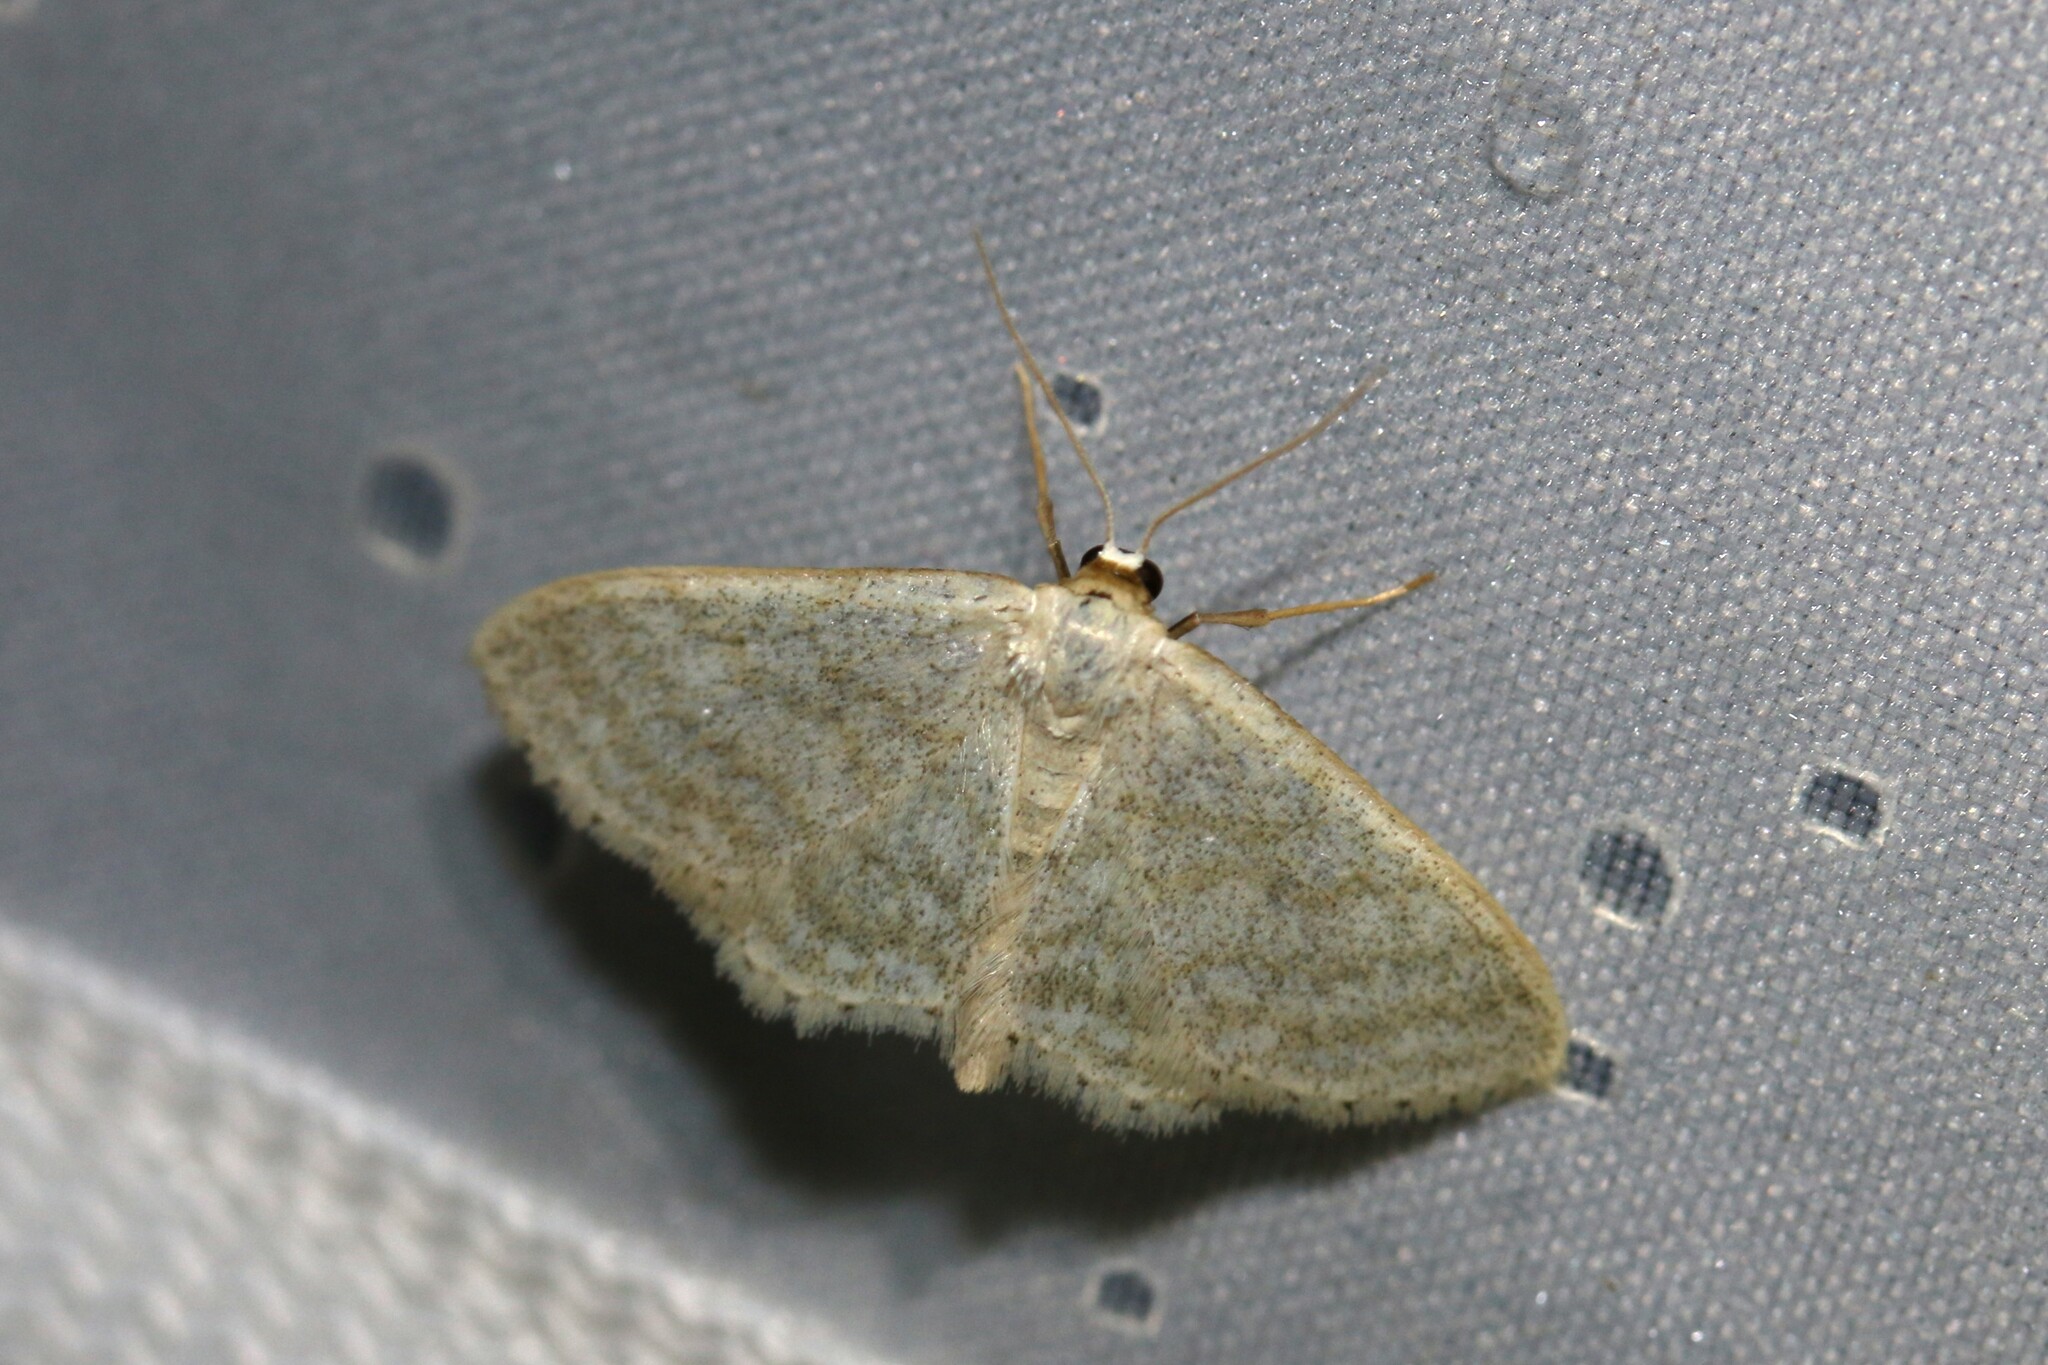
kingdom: Animalia
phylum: Arthropoda
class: Insecta
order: Lepidoptera
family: Geometridae
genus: Idaea
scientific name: Idaea subsericeata
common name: Satin wave
